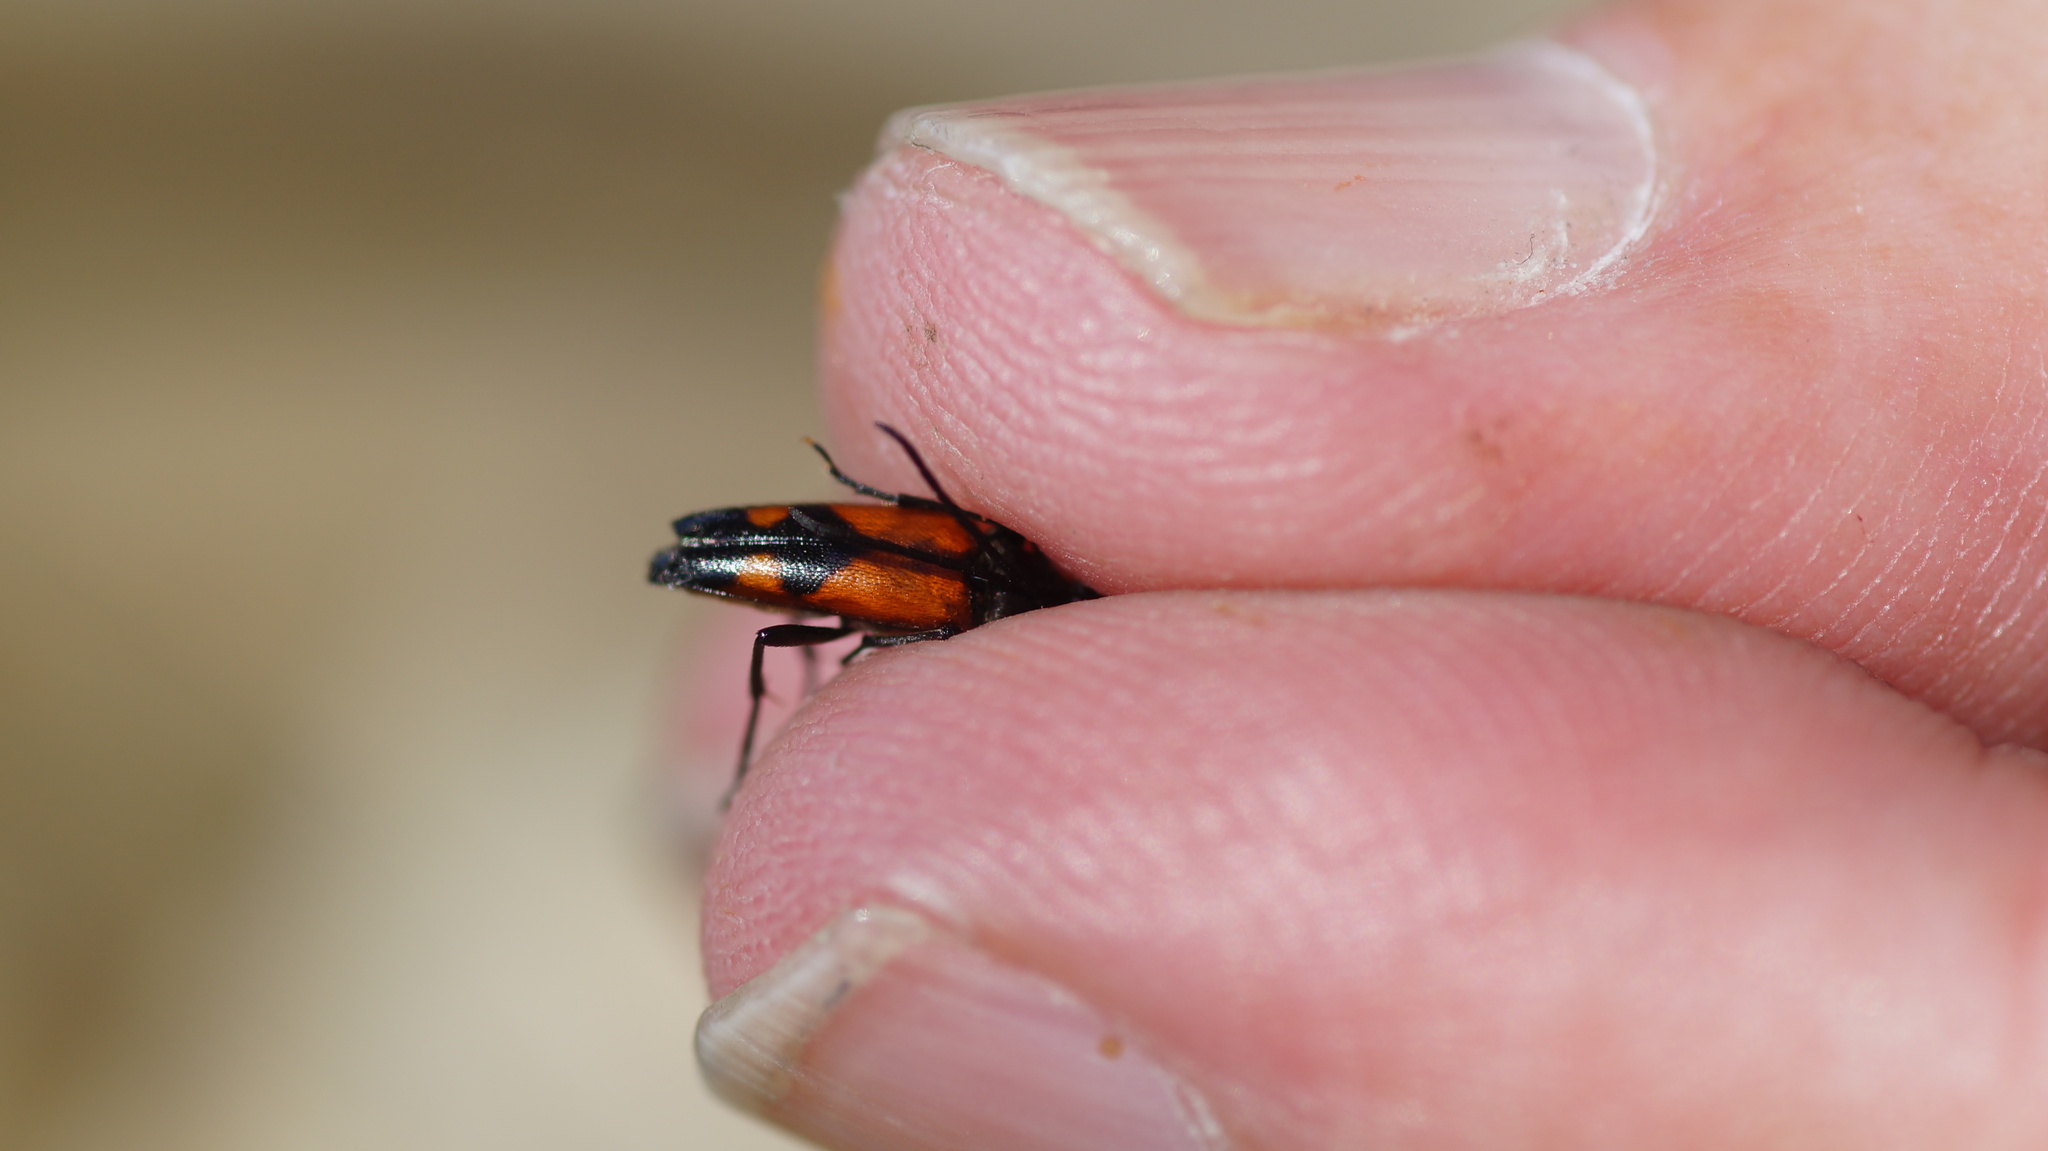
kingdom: Animalia
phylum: Arthropoda
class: Insecta
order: Coleoptera
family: Cerambycidae
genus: Stenurella
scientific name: Stenurella bifasciata
